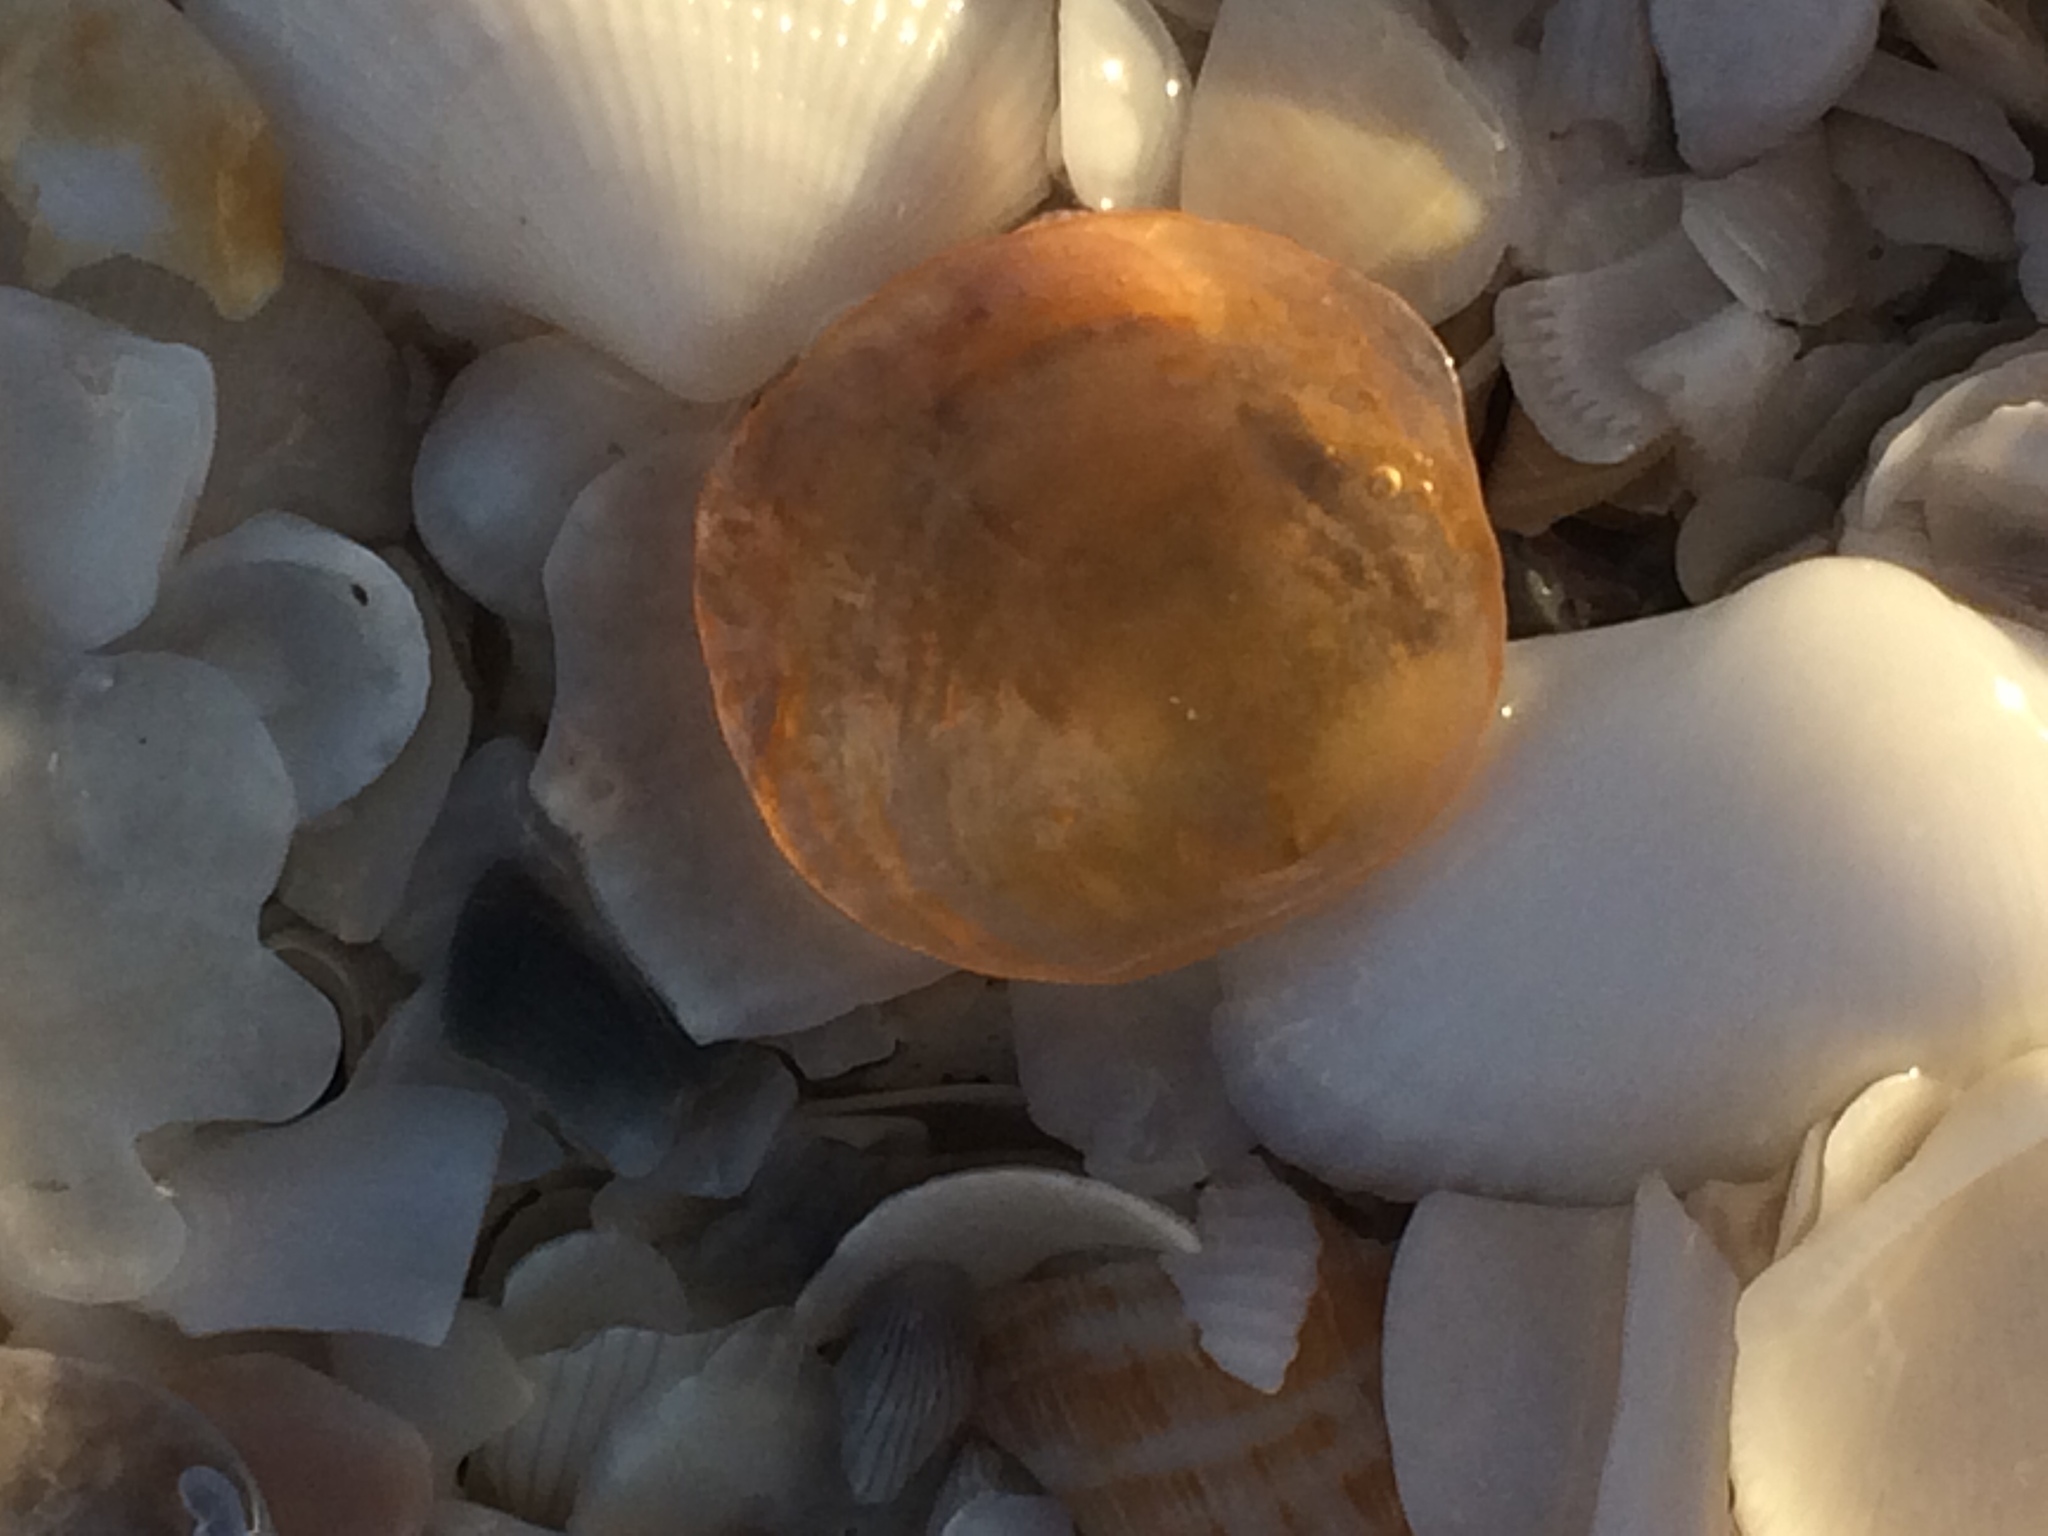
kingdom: Animalia
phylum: Mollusca
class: Bivalvia
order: Pectinida
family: Anomiidae
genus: Anomia
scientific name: Anomia simplex
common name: Common jingle shell
